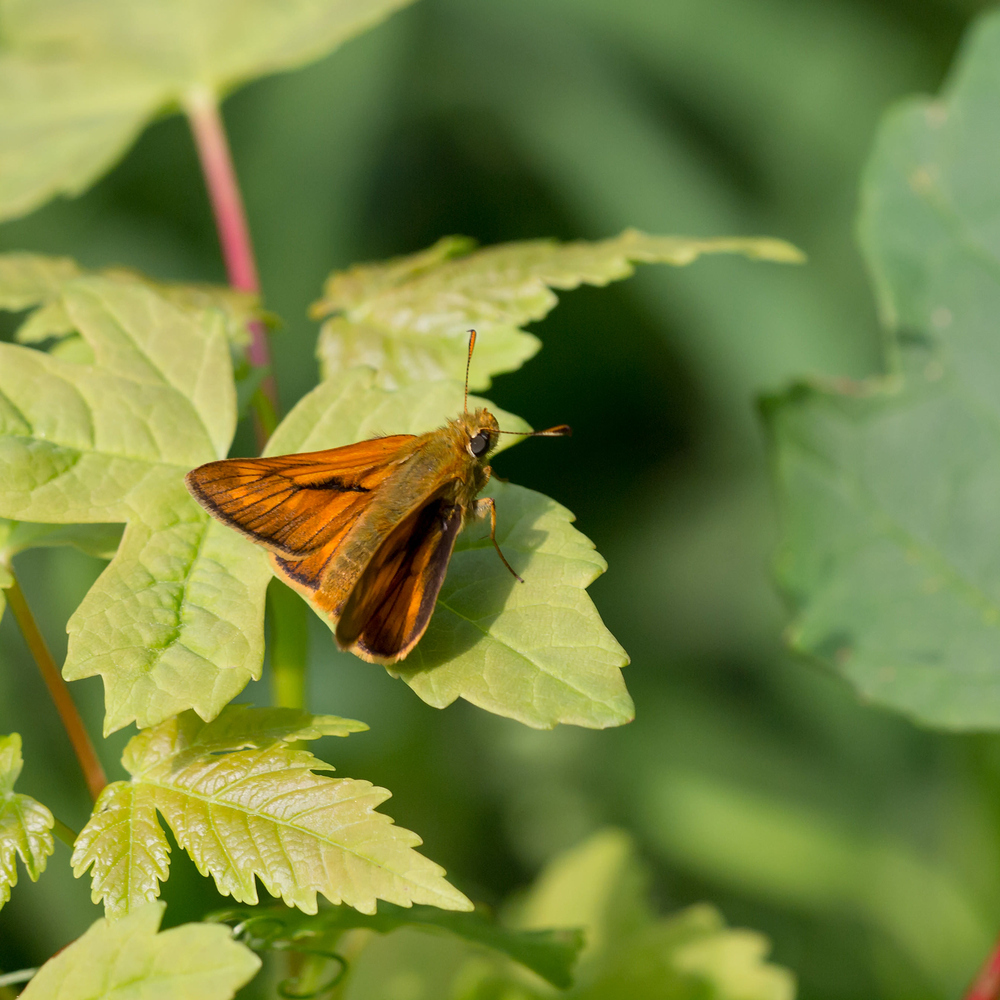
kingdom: Animalia
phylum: Arthropoda
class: Insecta
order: Lepidoptera
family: Hesperiidae
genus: Ochlodes
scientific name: Ochlodes venata
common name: Large skipper
